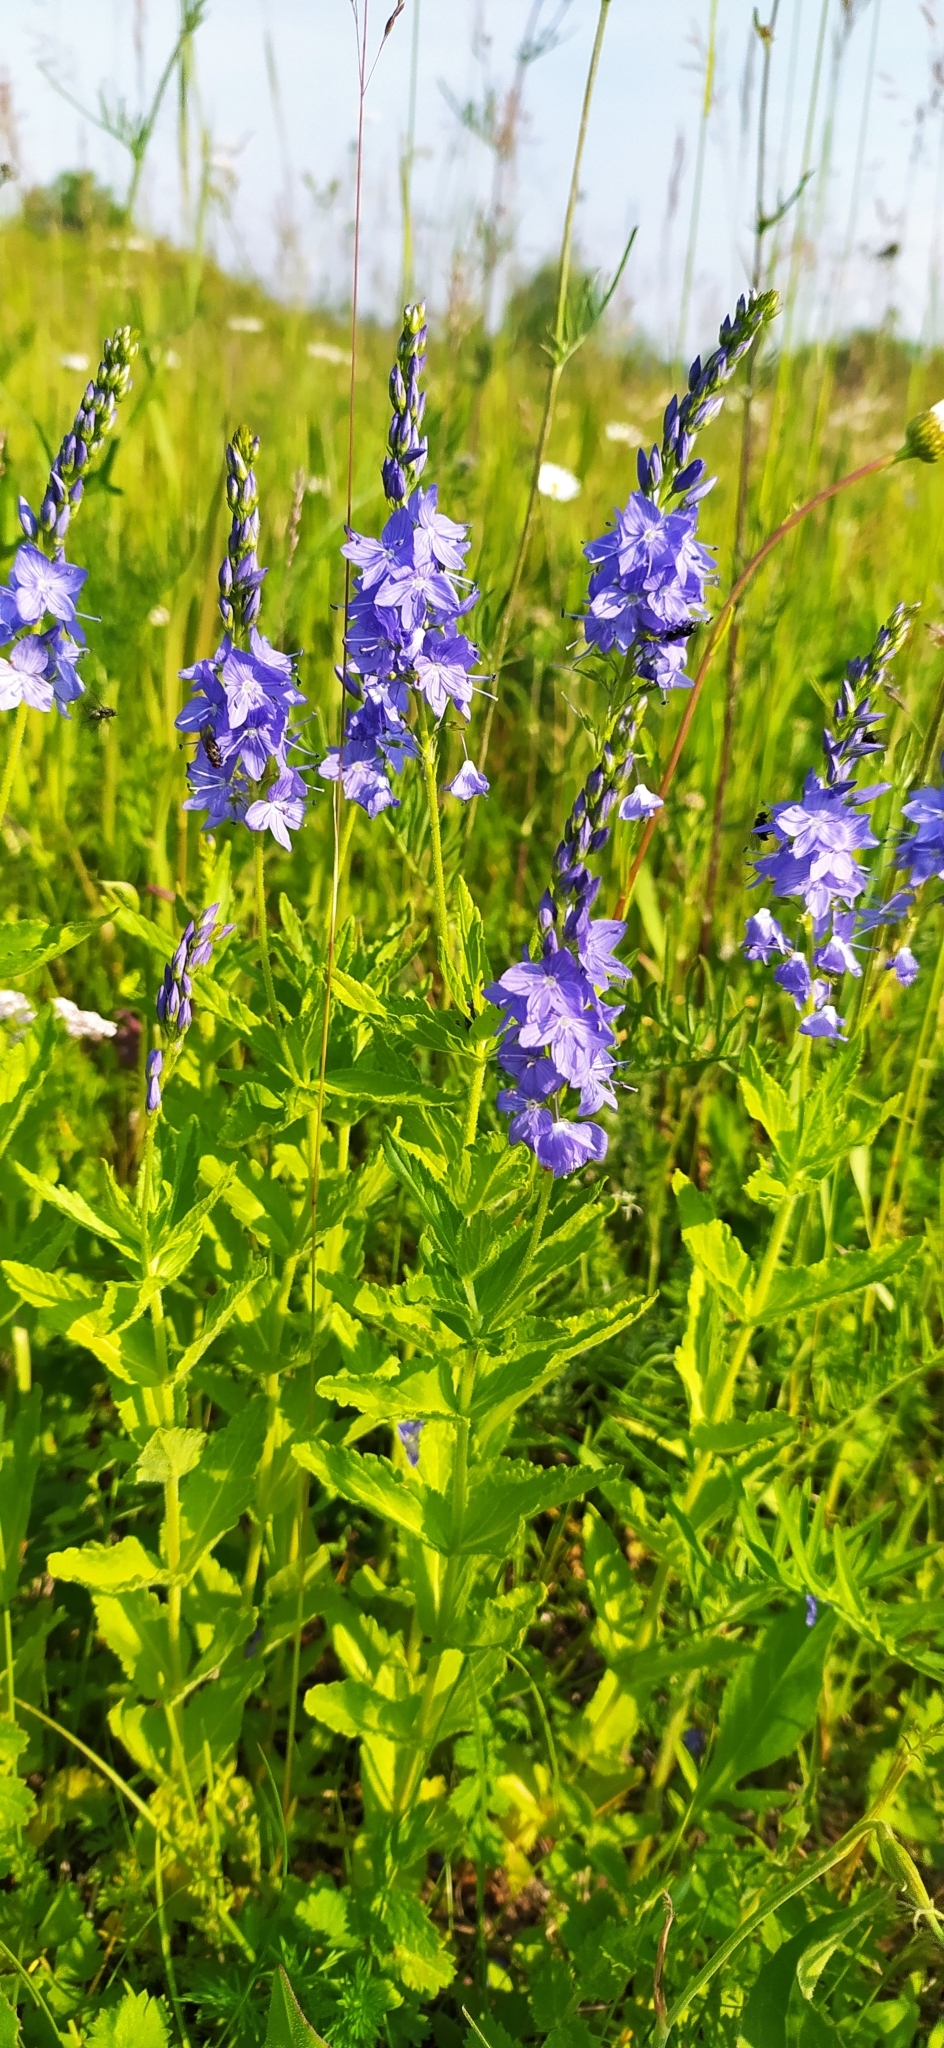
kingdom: Plantae
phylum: Tracheophyta
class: Magnoliopsida
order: Lamiales
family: Plantaginaceae
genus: Veronica
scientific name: Veronica teucrium
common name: Large speedwell
